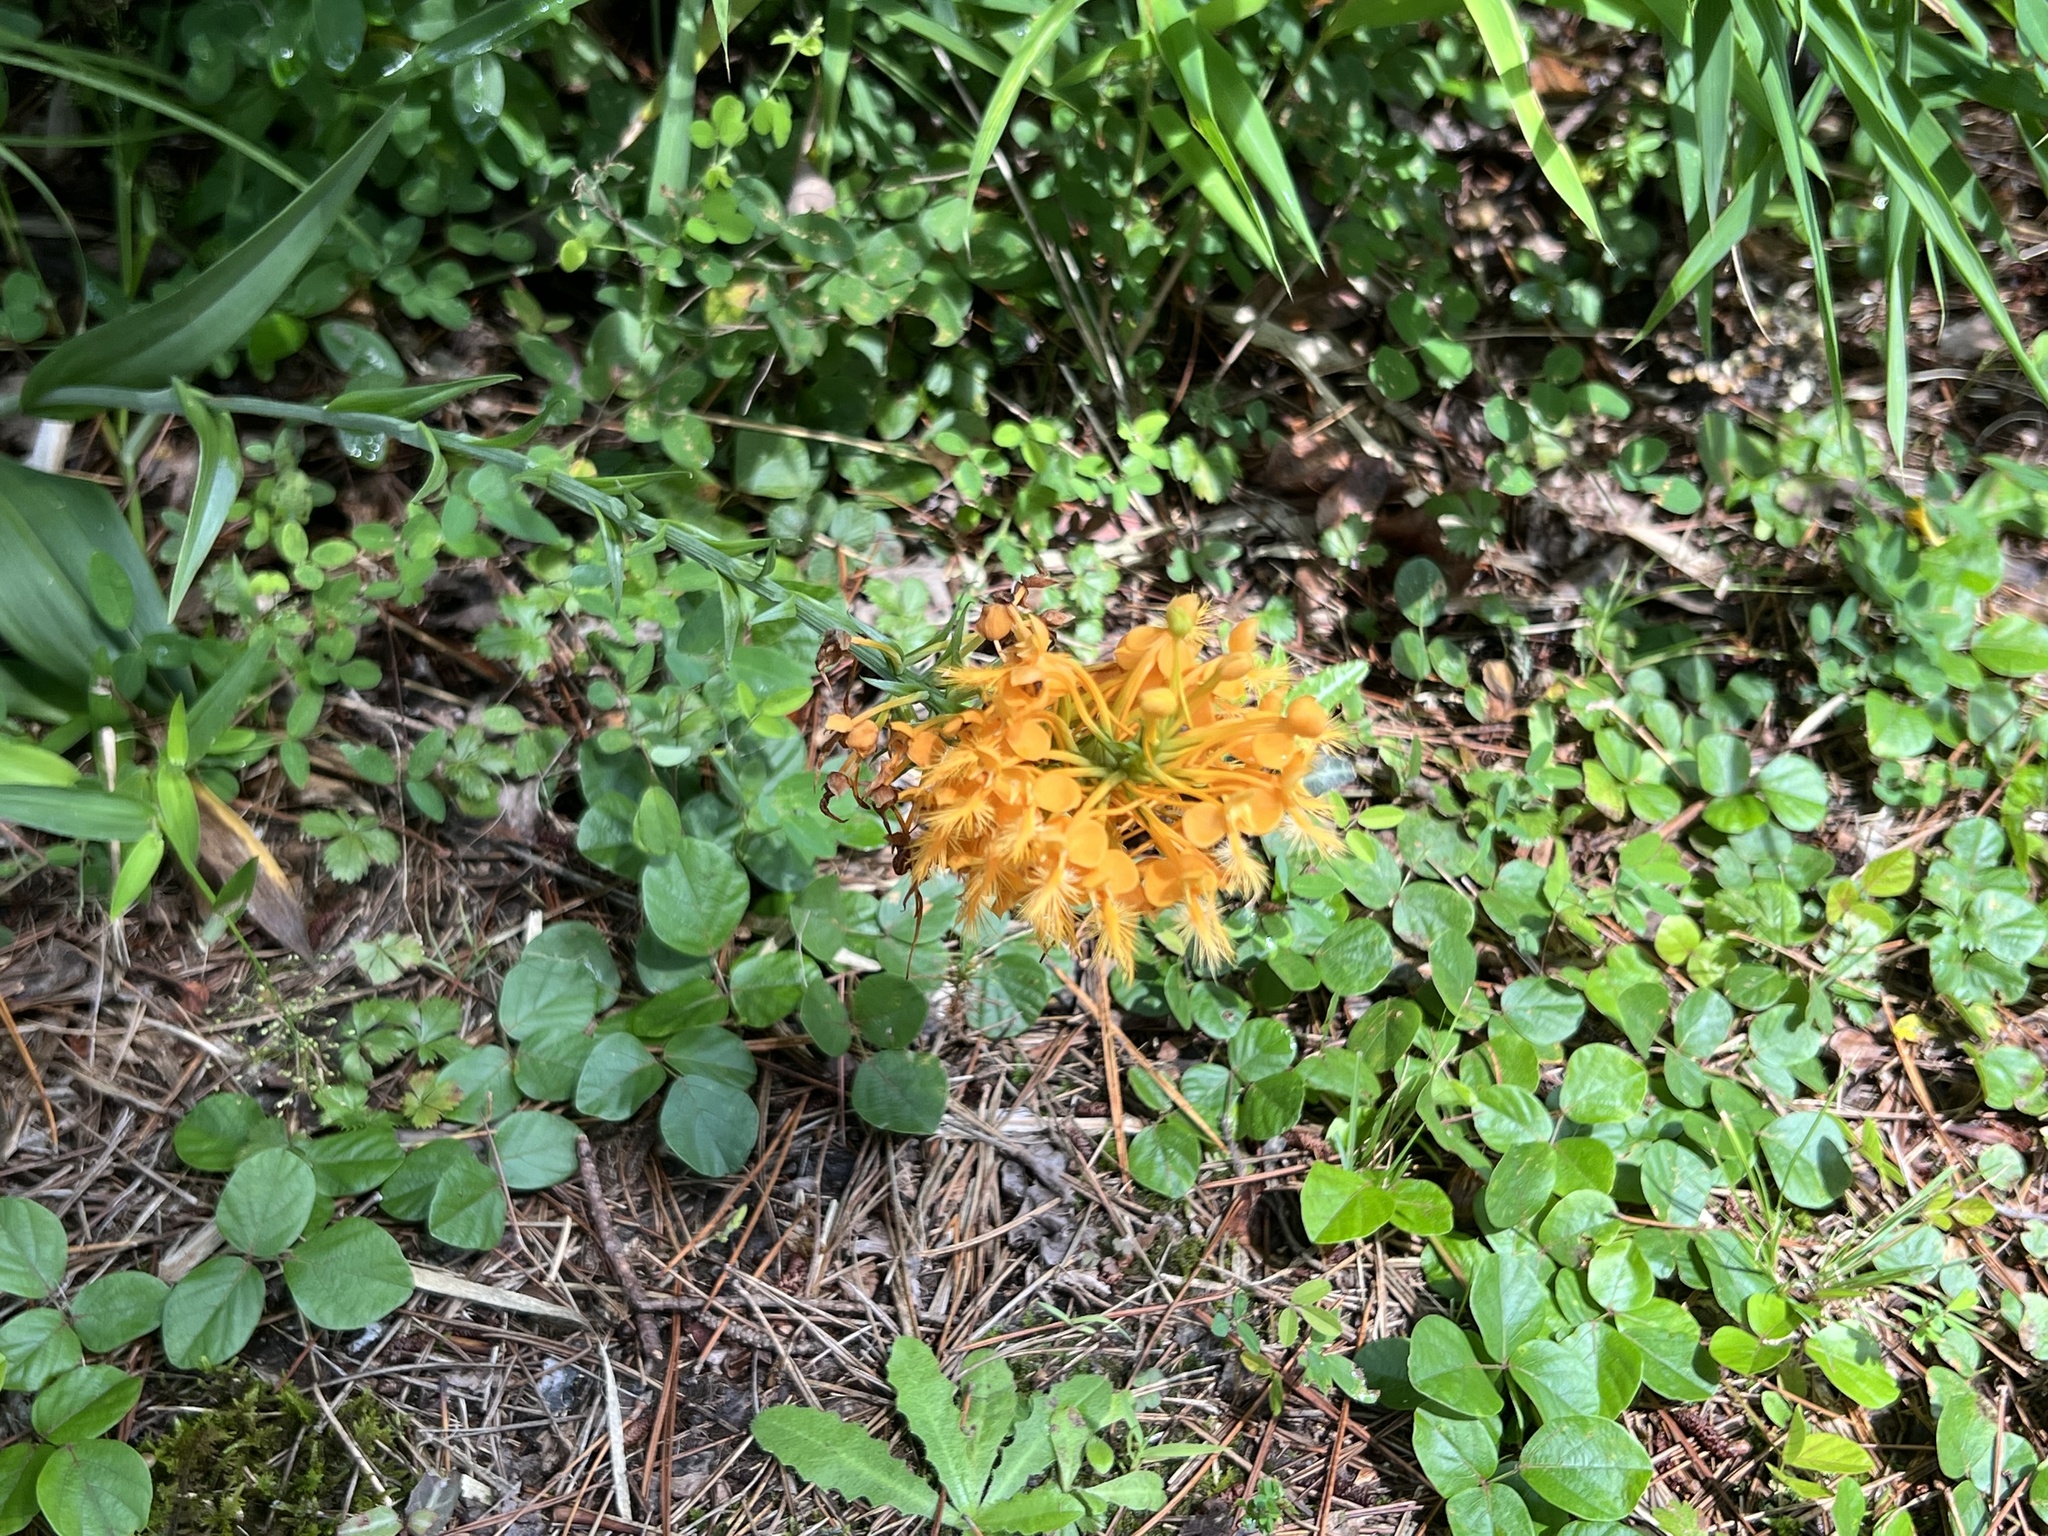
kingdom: Plantae
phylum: Tracheophyta
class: Liliopsida
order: Asparagales
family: Orchidaceae
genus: Platanthera
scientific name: Platanthera ciliaris
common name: Yellow fringed orchid
